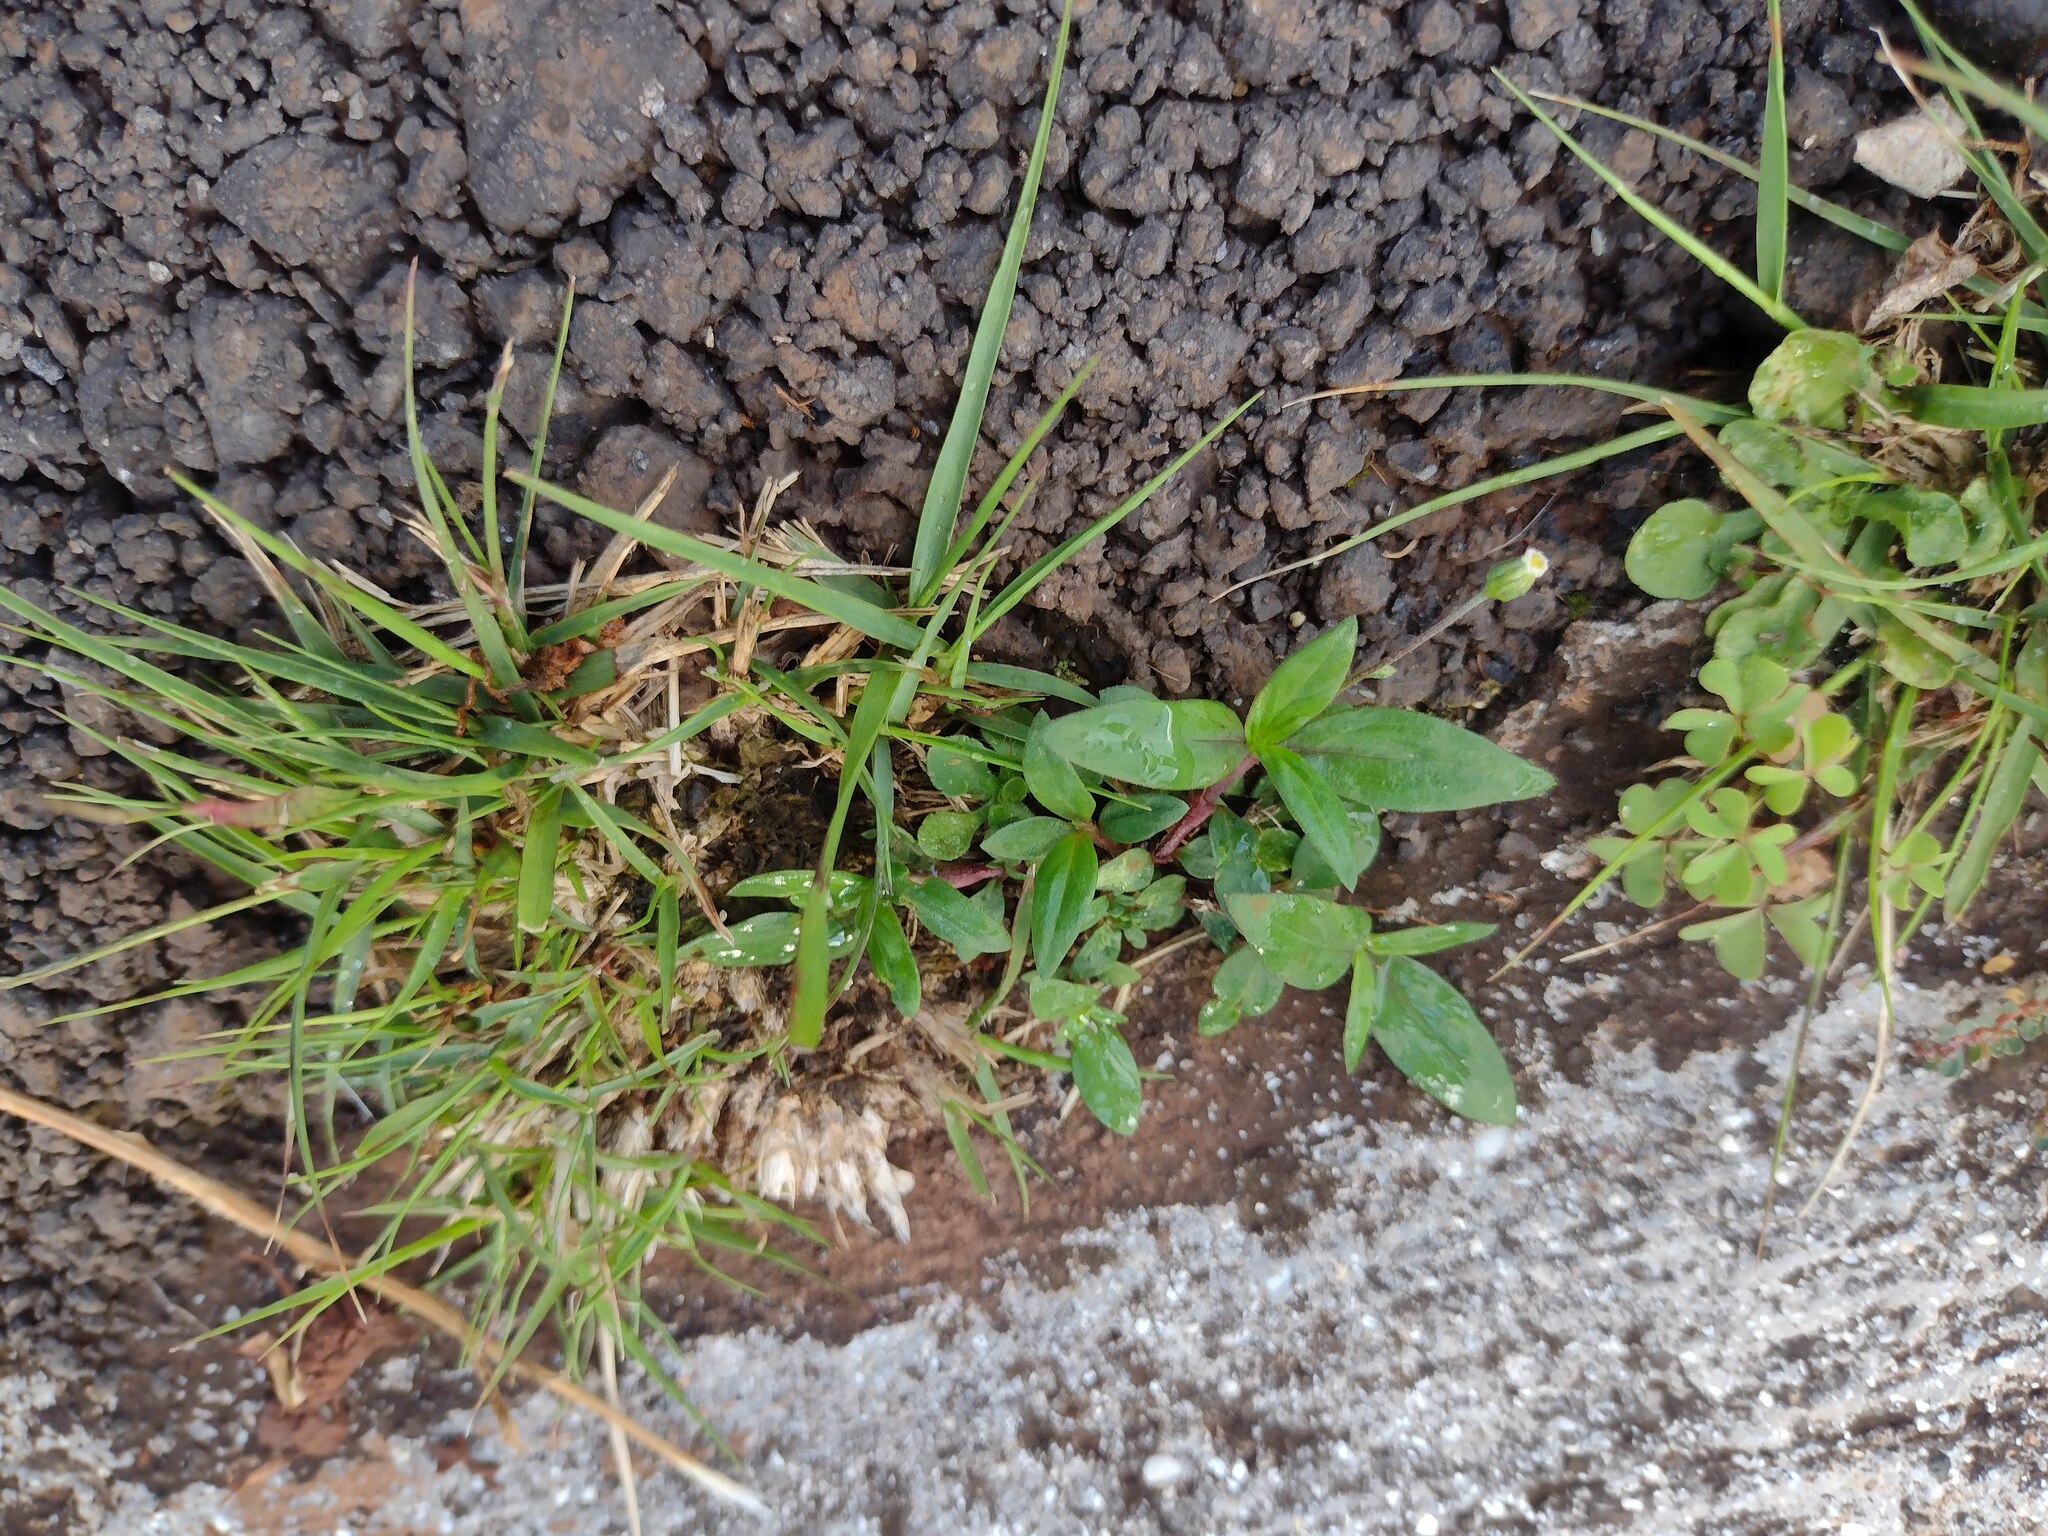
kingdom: Plantae
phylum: Tracheophyta
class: Magnoliopsida
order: Asterales
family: Asteraceae
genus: Erigeron
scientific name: Erigeron bellioides
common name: Bellorita
